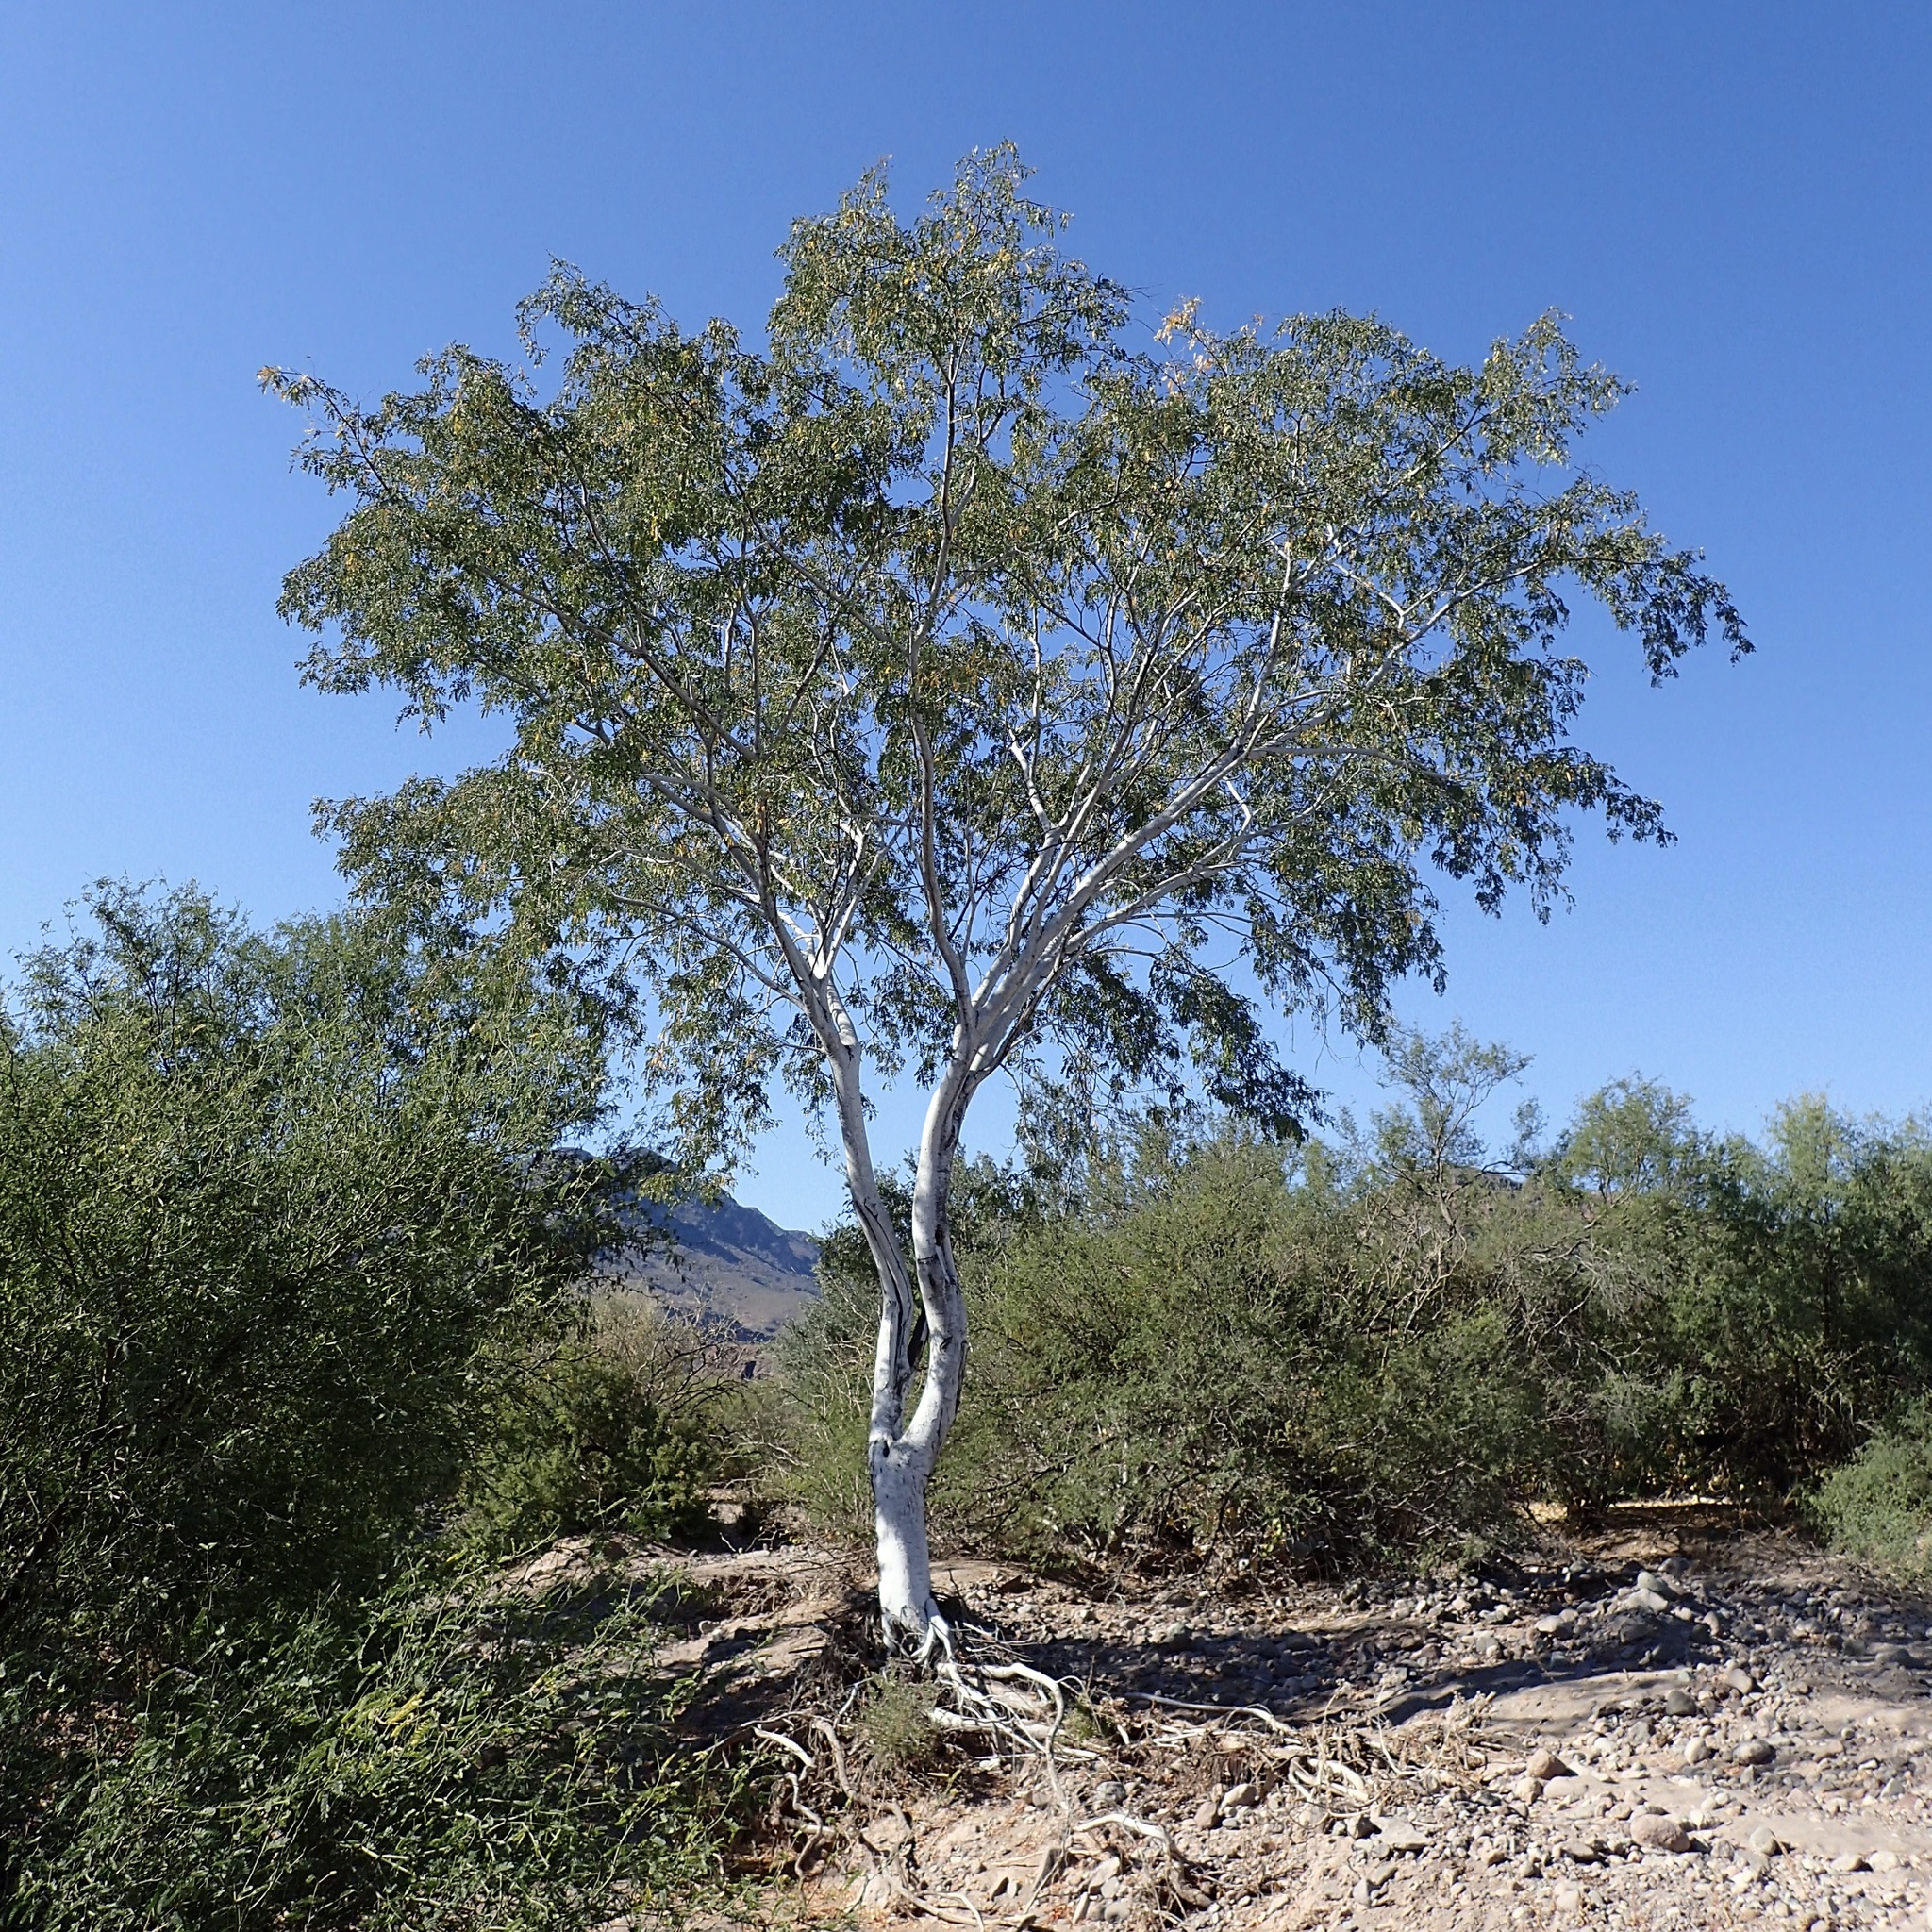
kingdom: Plantae
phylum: Tracheophyta
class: Magnoliopsida
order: Fabales
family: Fabaceae
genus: Lysiloma
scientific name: Lysiloma candidum
